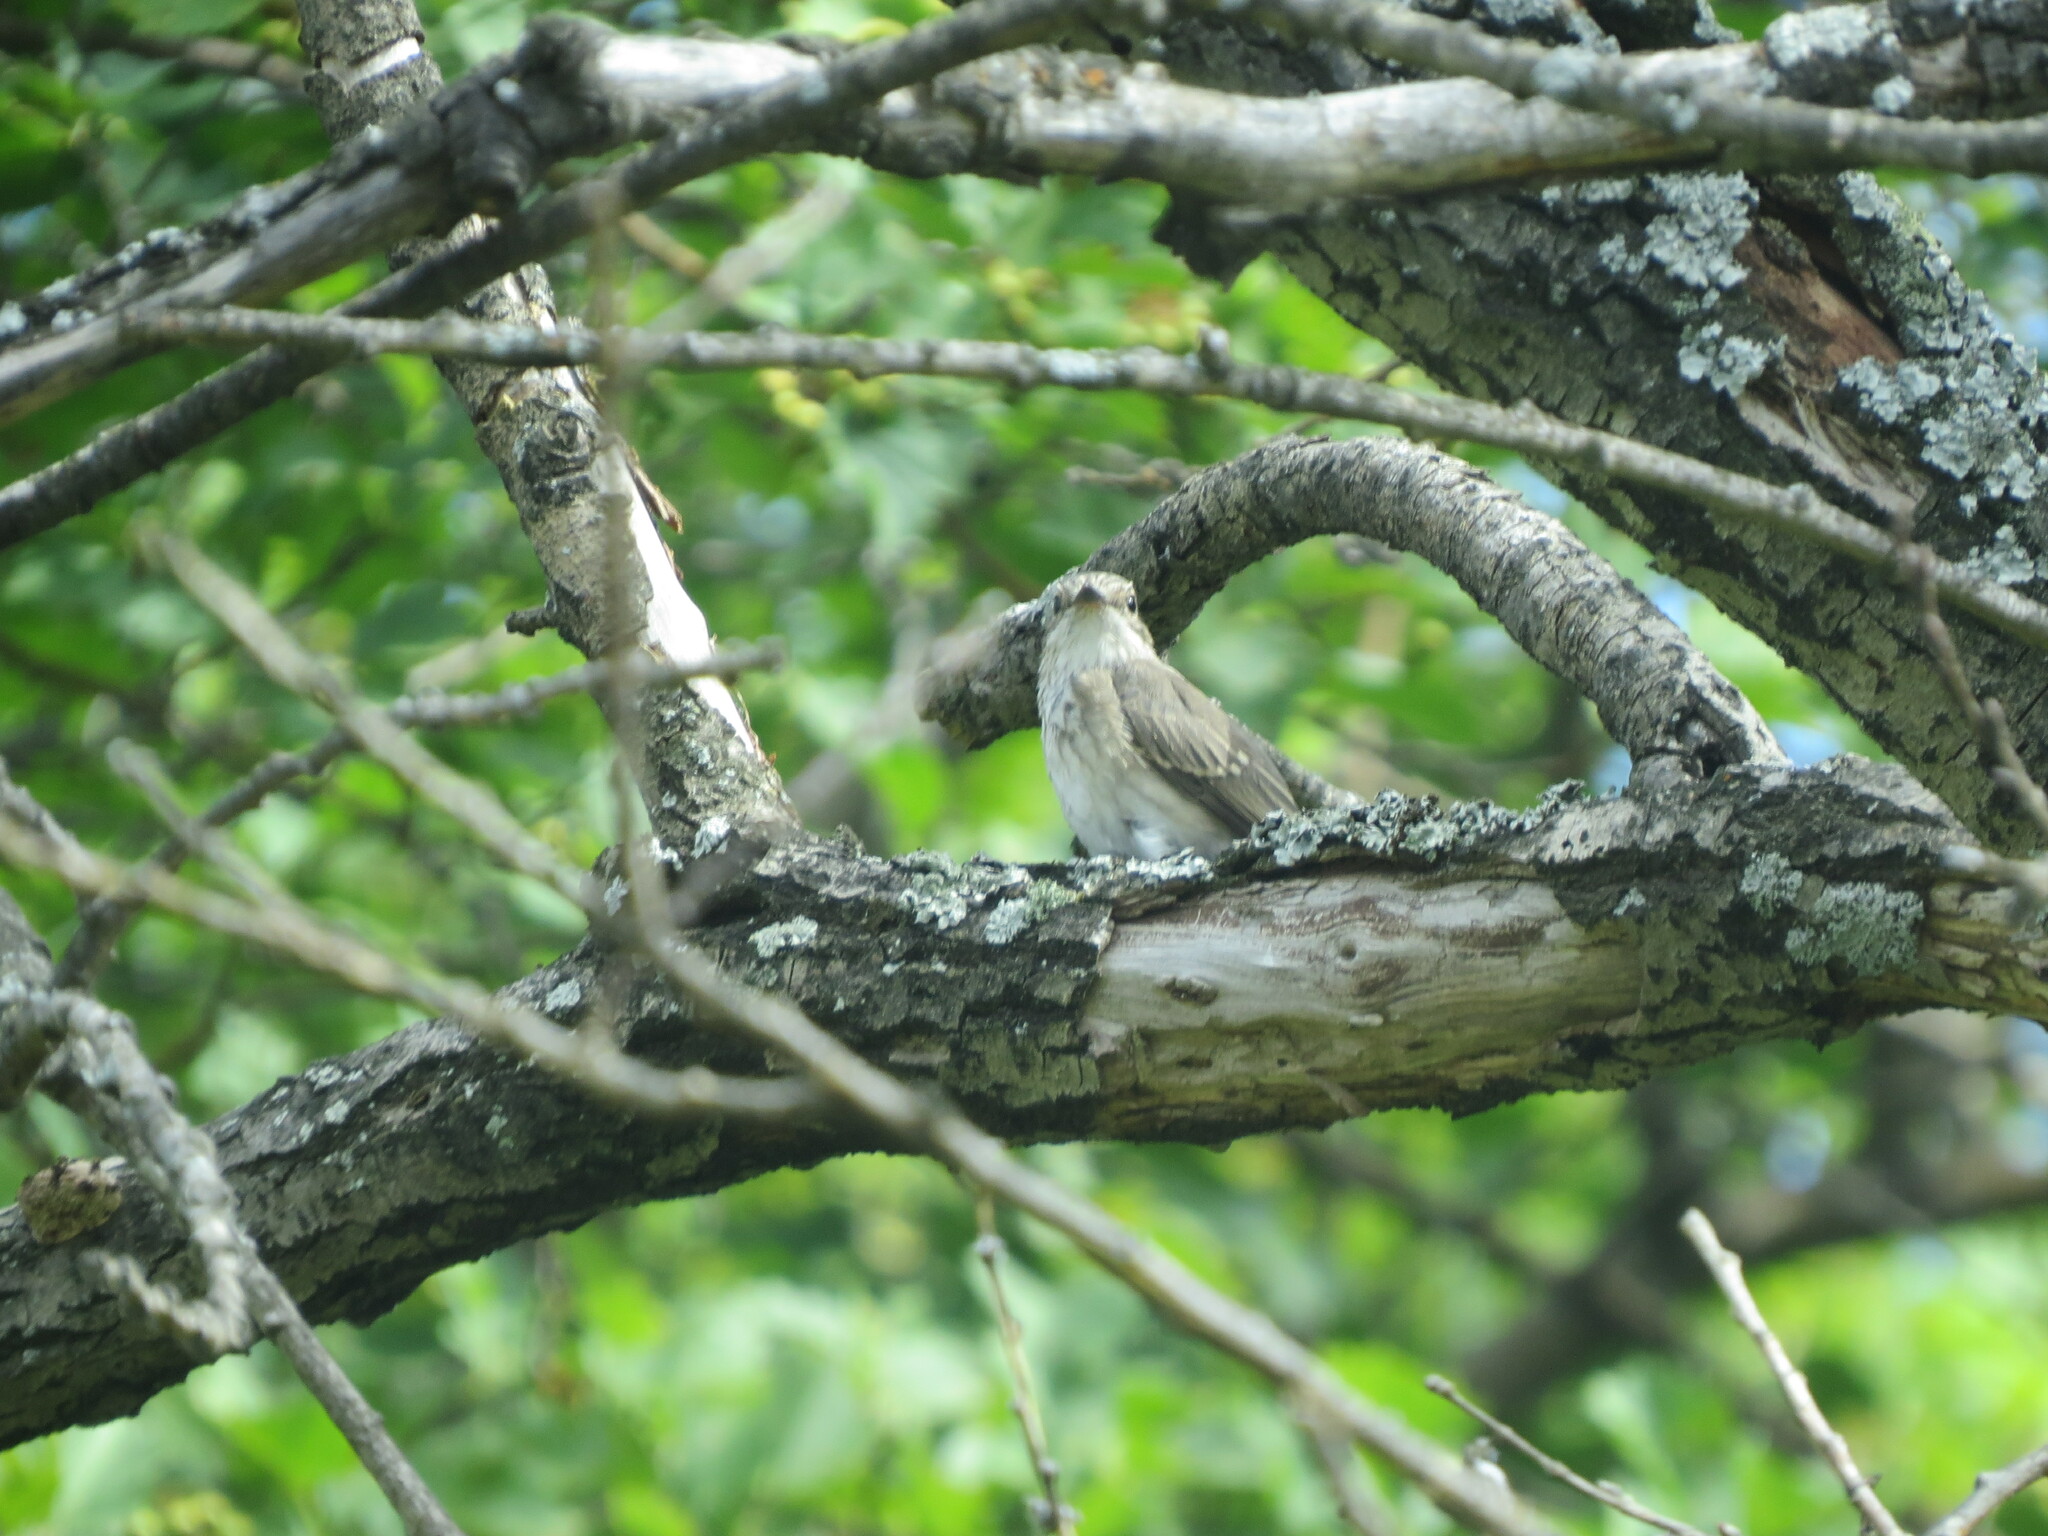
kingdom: Animalia
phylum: Chordata
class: Aves
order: Passeriformes
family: Muscicapidae
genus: Muscicapa
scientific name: Muscicapa striata
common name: Spotted flycatcher
